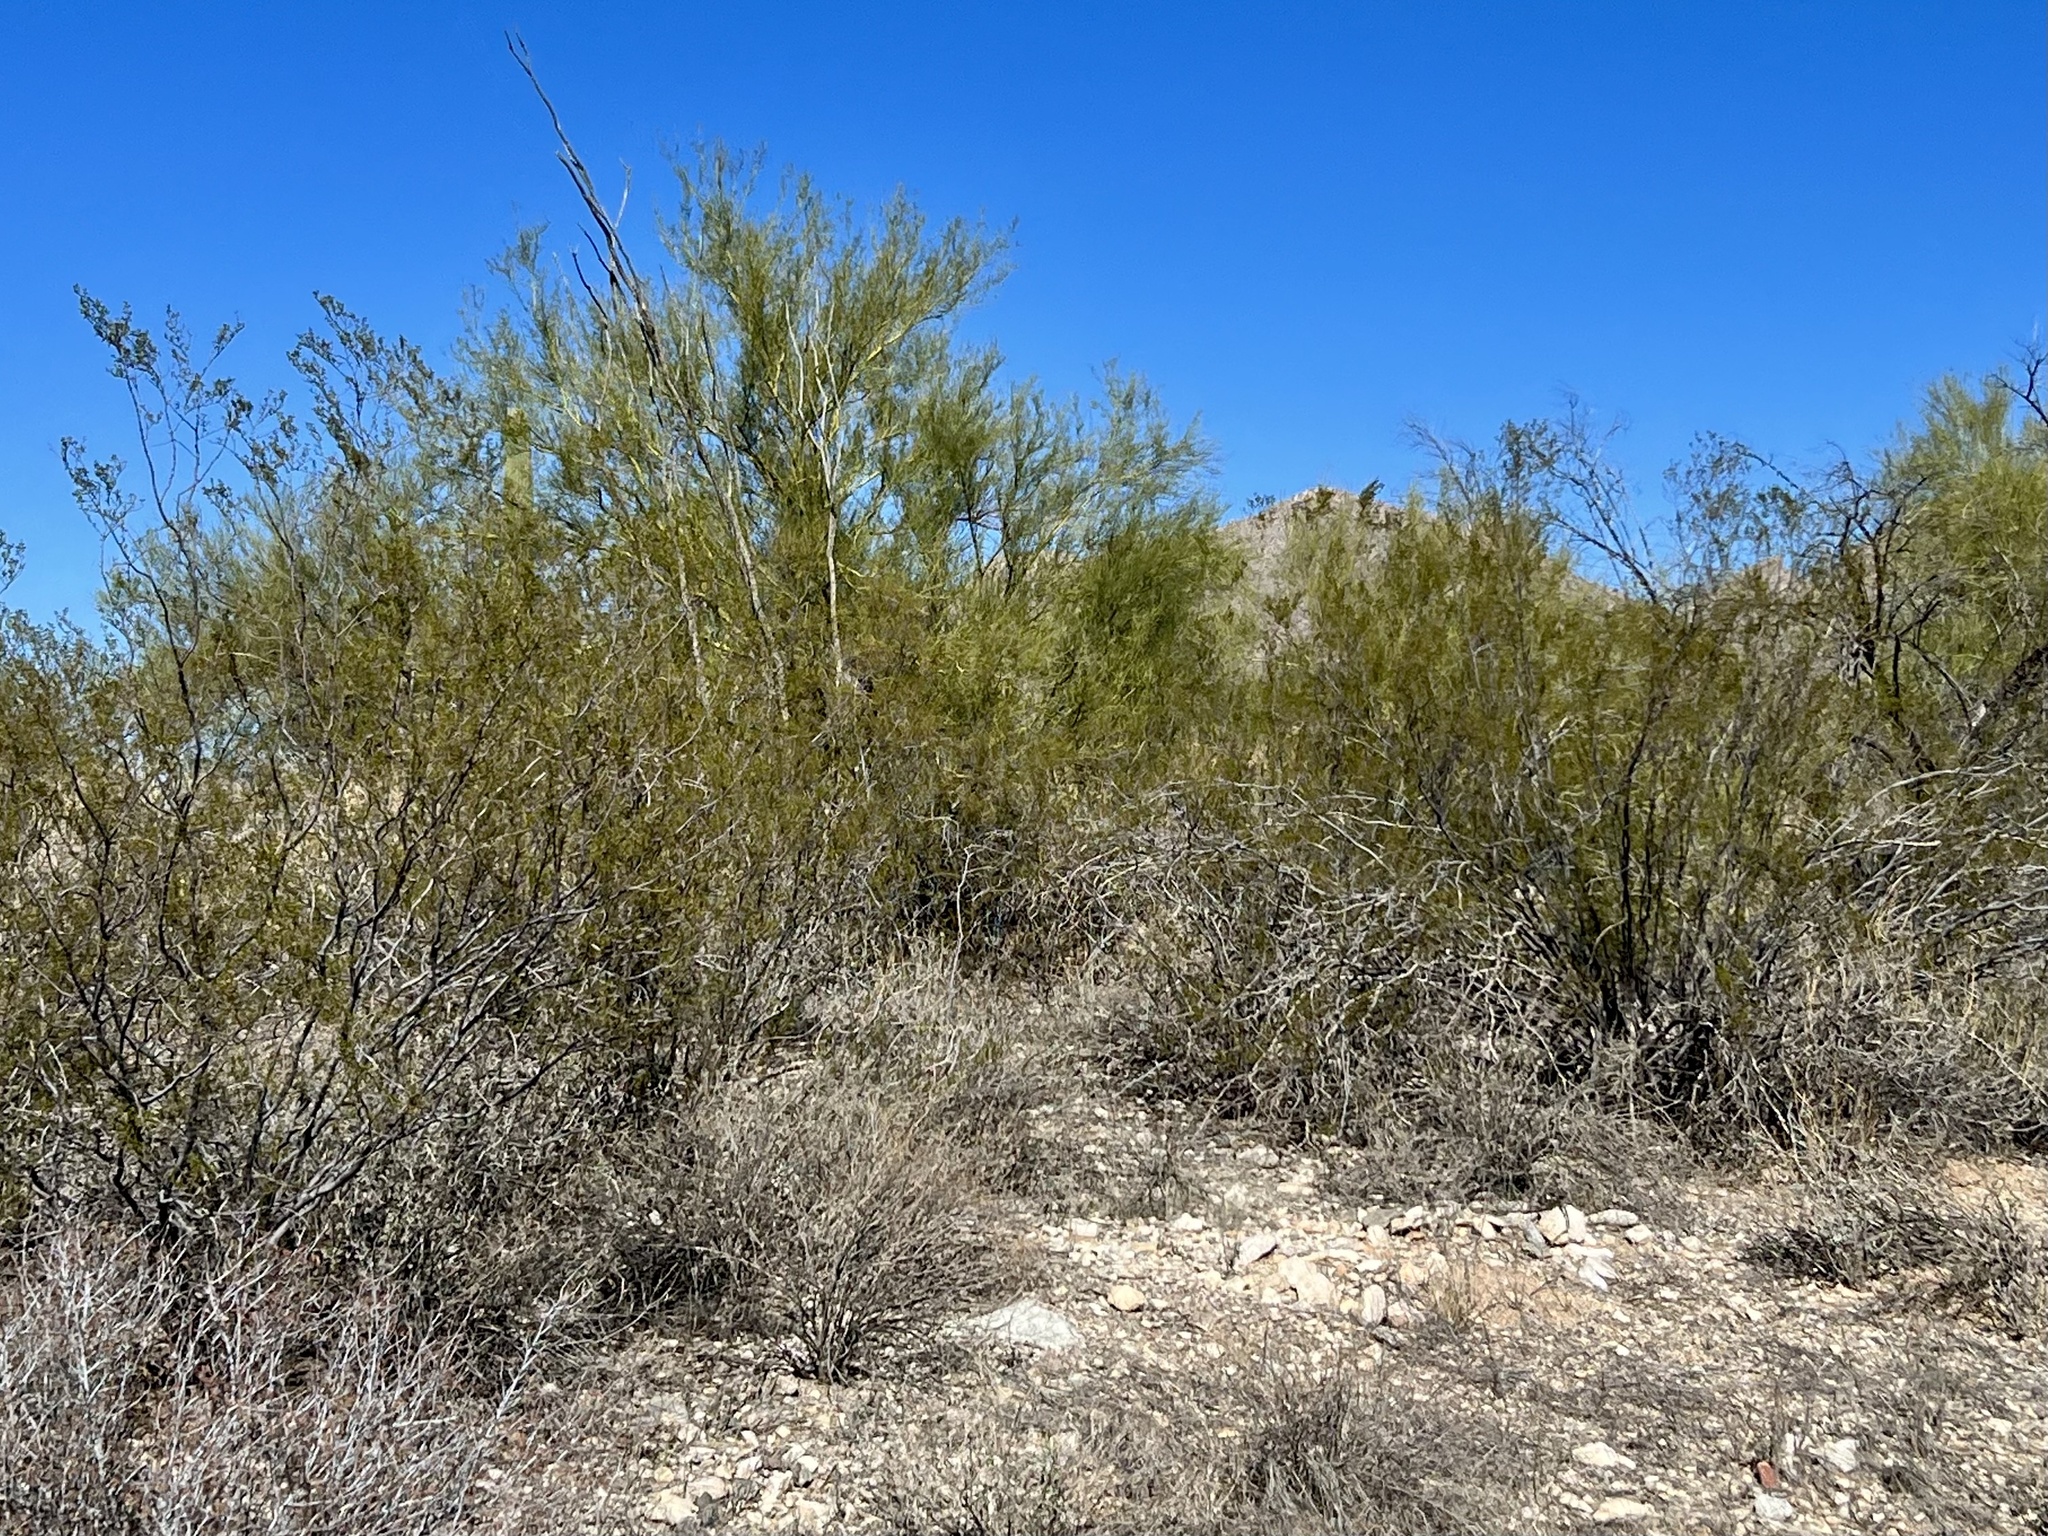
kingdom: Plantae
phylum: Tracheophyta
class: Magnoliopsida
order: Zygophyllales
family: Zygophyllaceae
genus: Larrea
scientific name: Larrea tridentata
